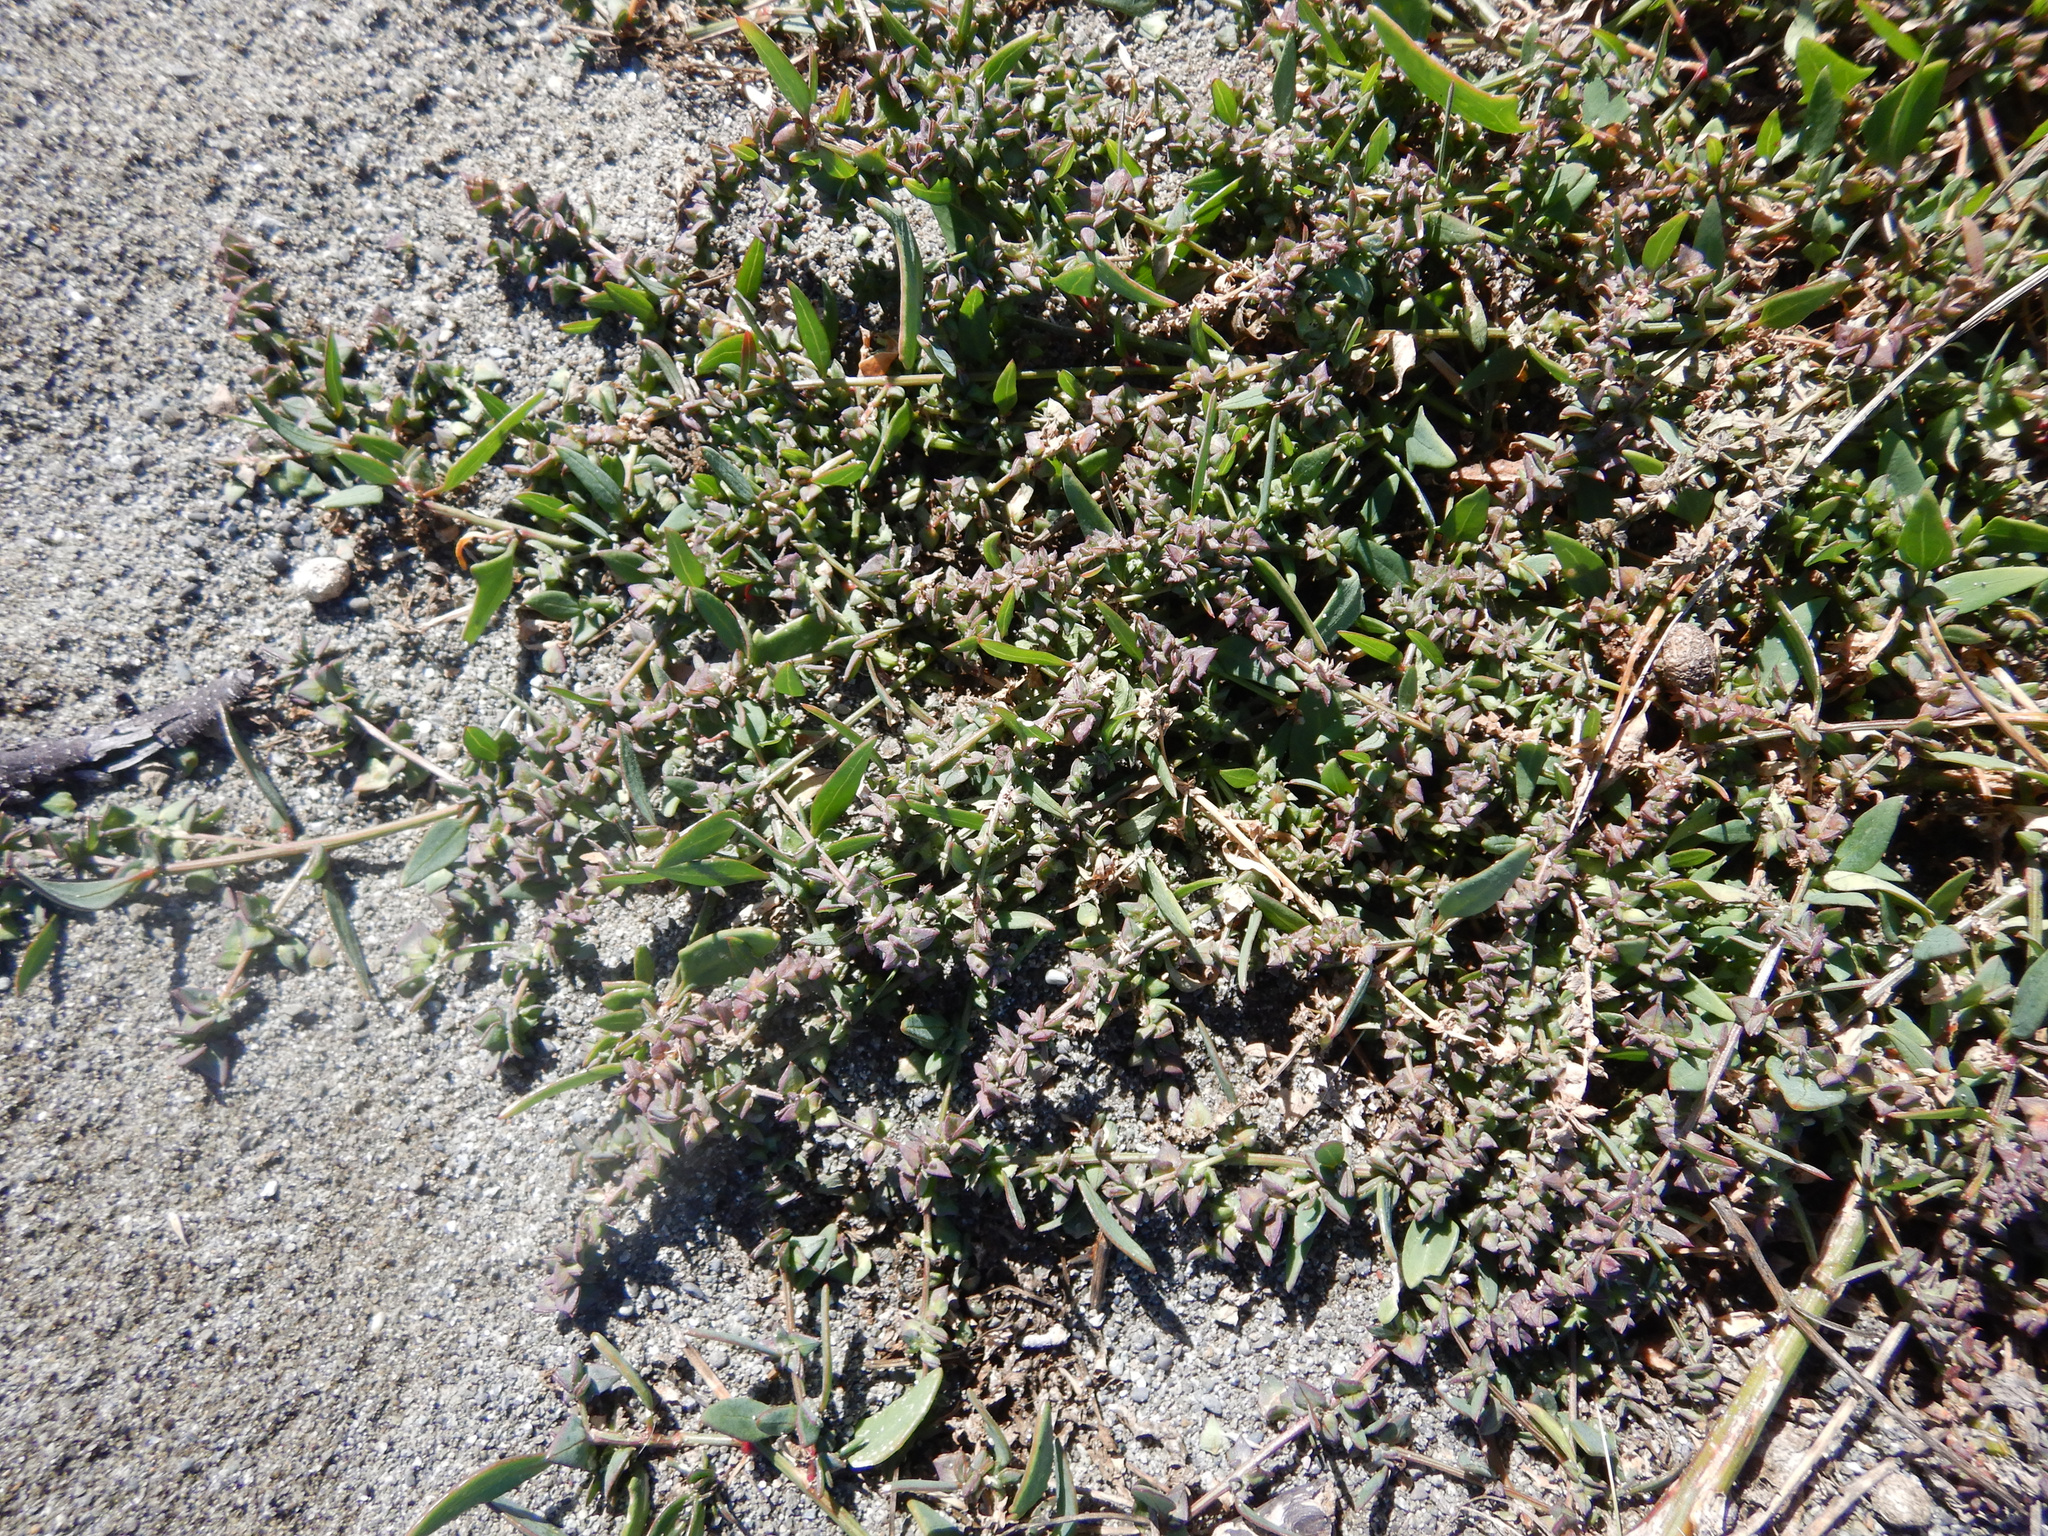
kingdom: Plantae
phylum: Tracheophyta
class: Magnoliopsida
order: Caryophyllales
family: Amaranthaceae
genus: Atriplex
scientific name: Atriplex prostrata
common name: Spear-leaved orache
